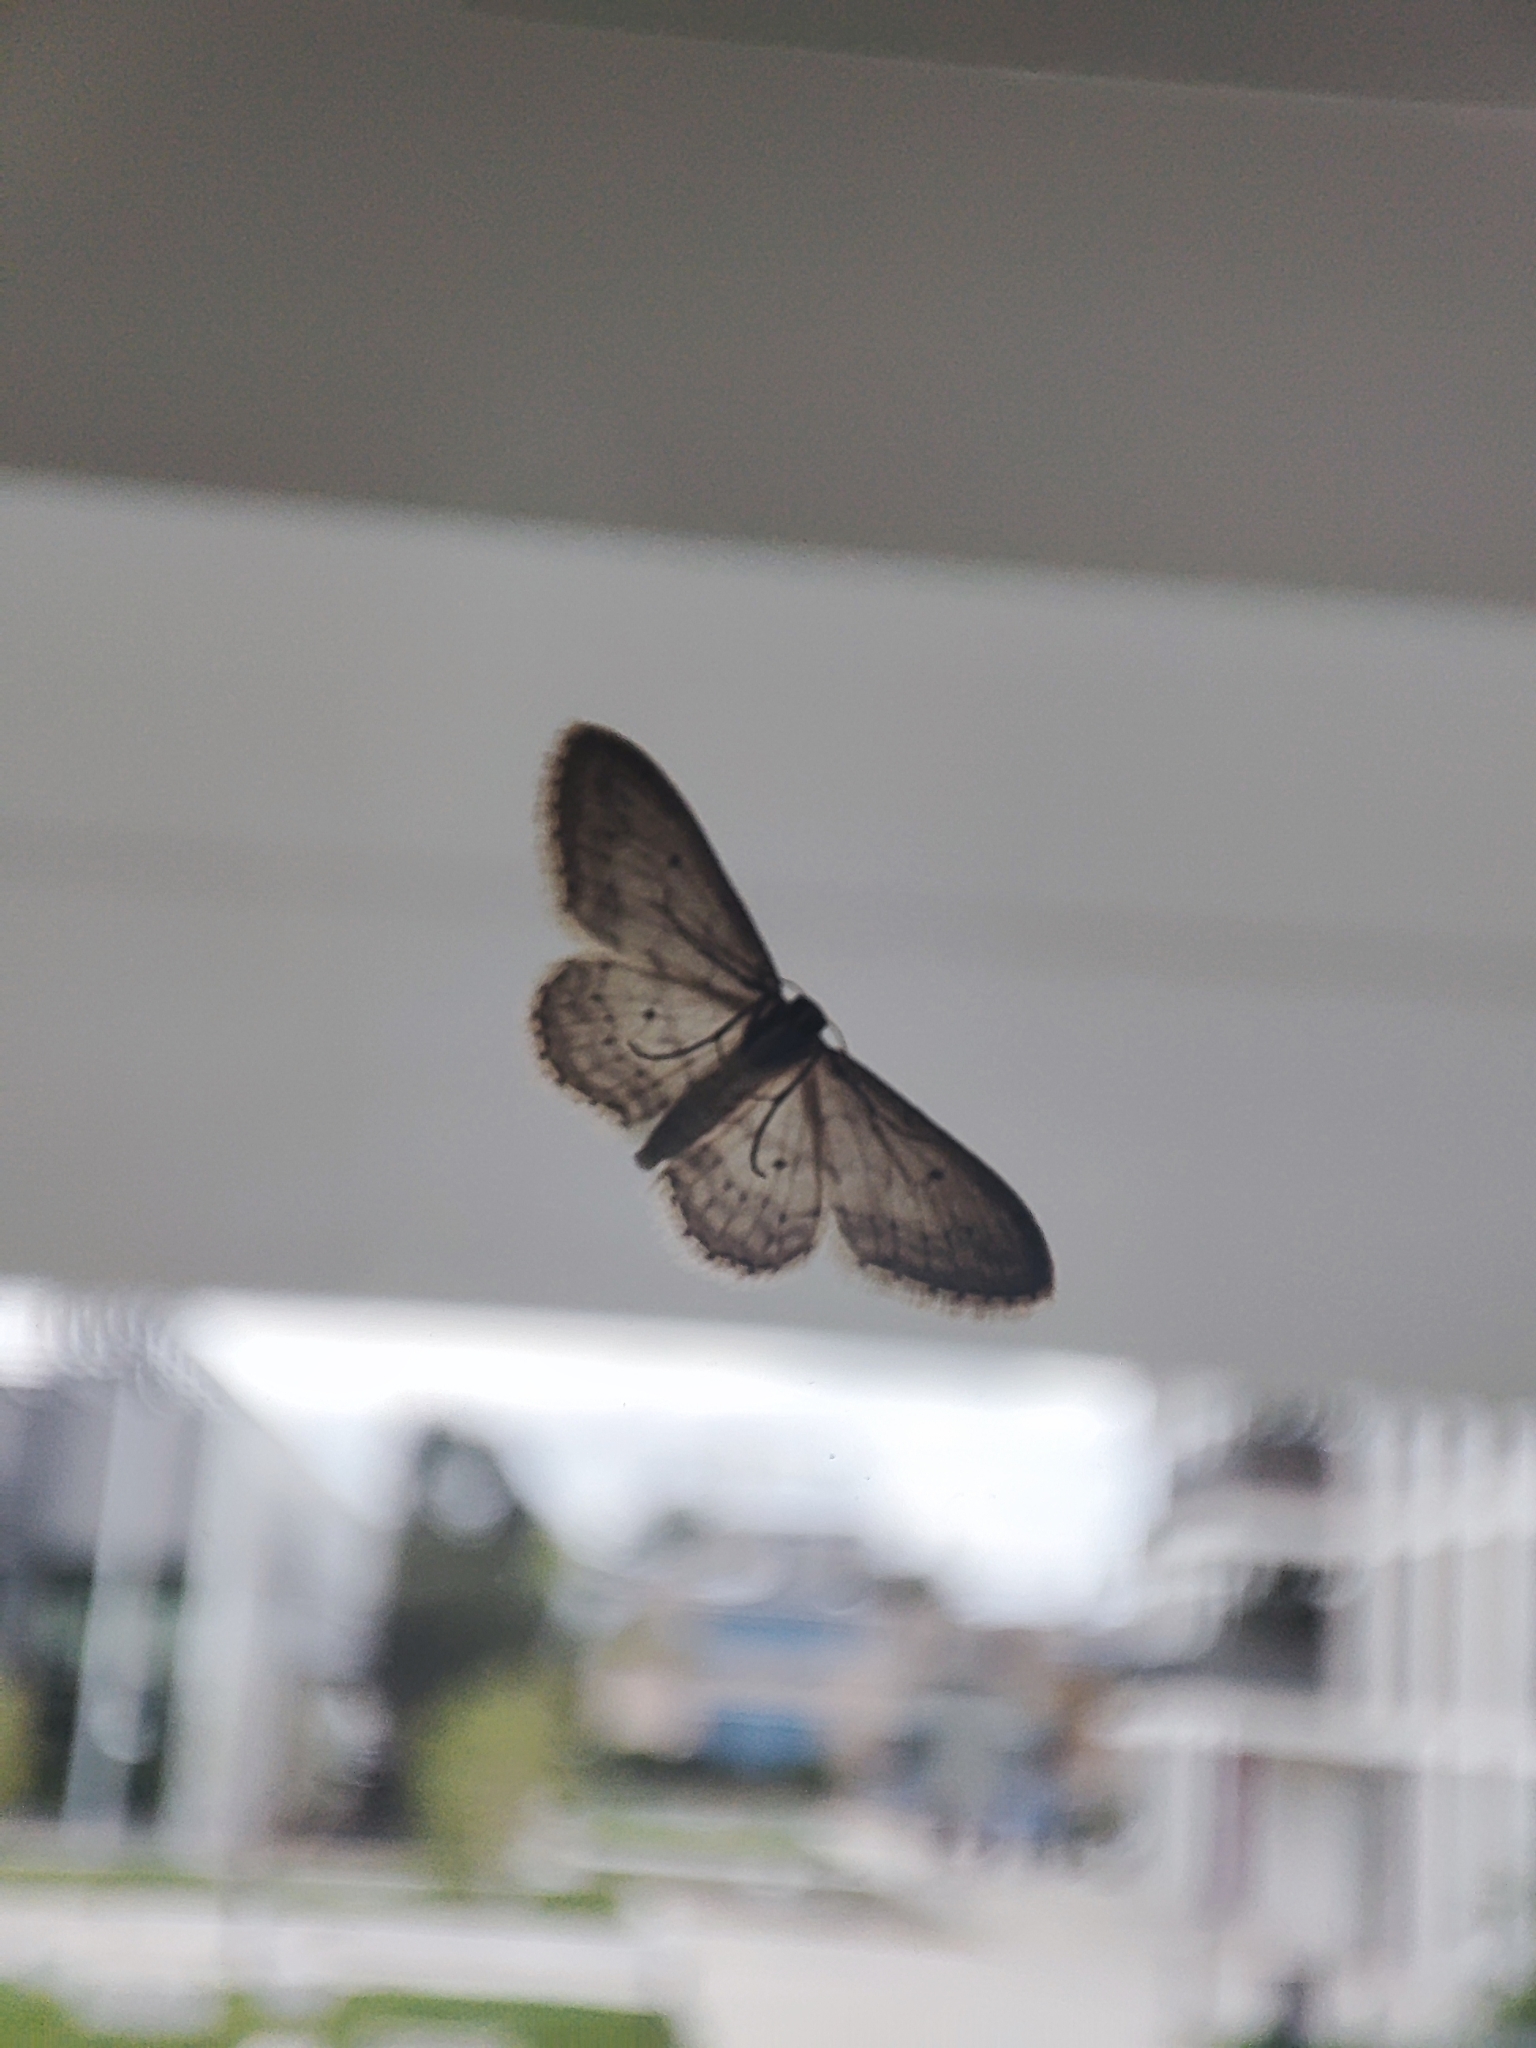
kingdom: Animalia
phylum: Arthropoda
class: Insecta
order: Lepidoptera
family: Geometridae
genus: Idaea
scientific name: Idaea seriata
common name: Small dusty wave
